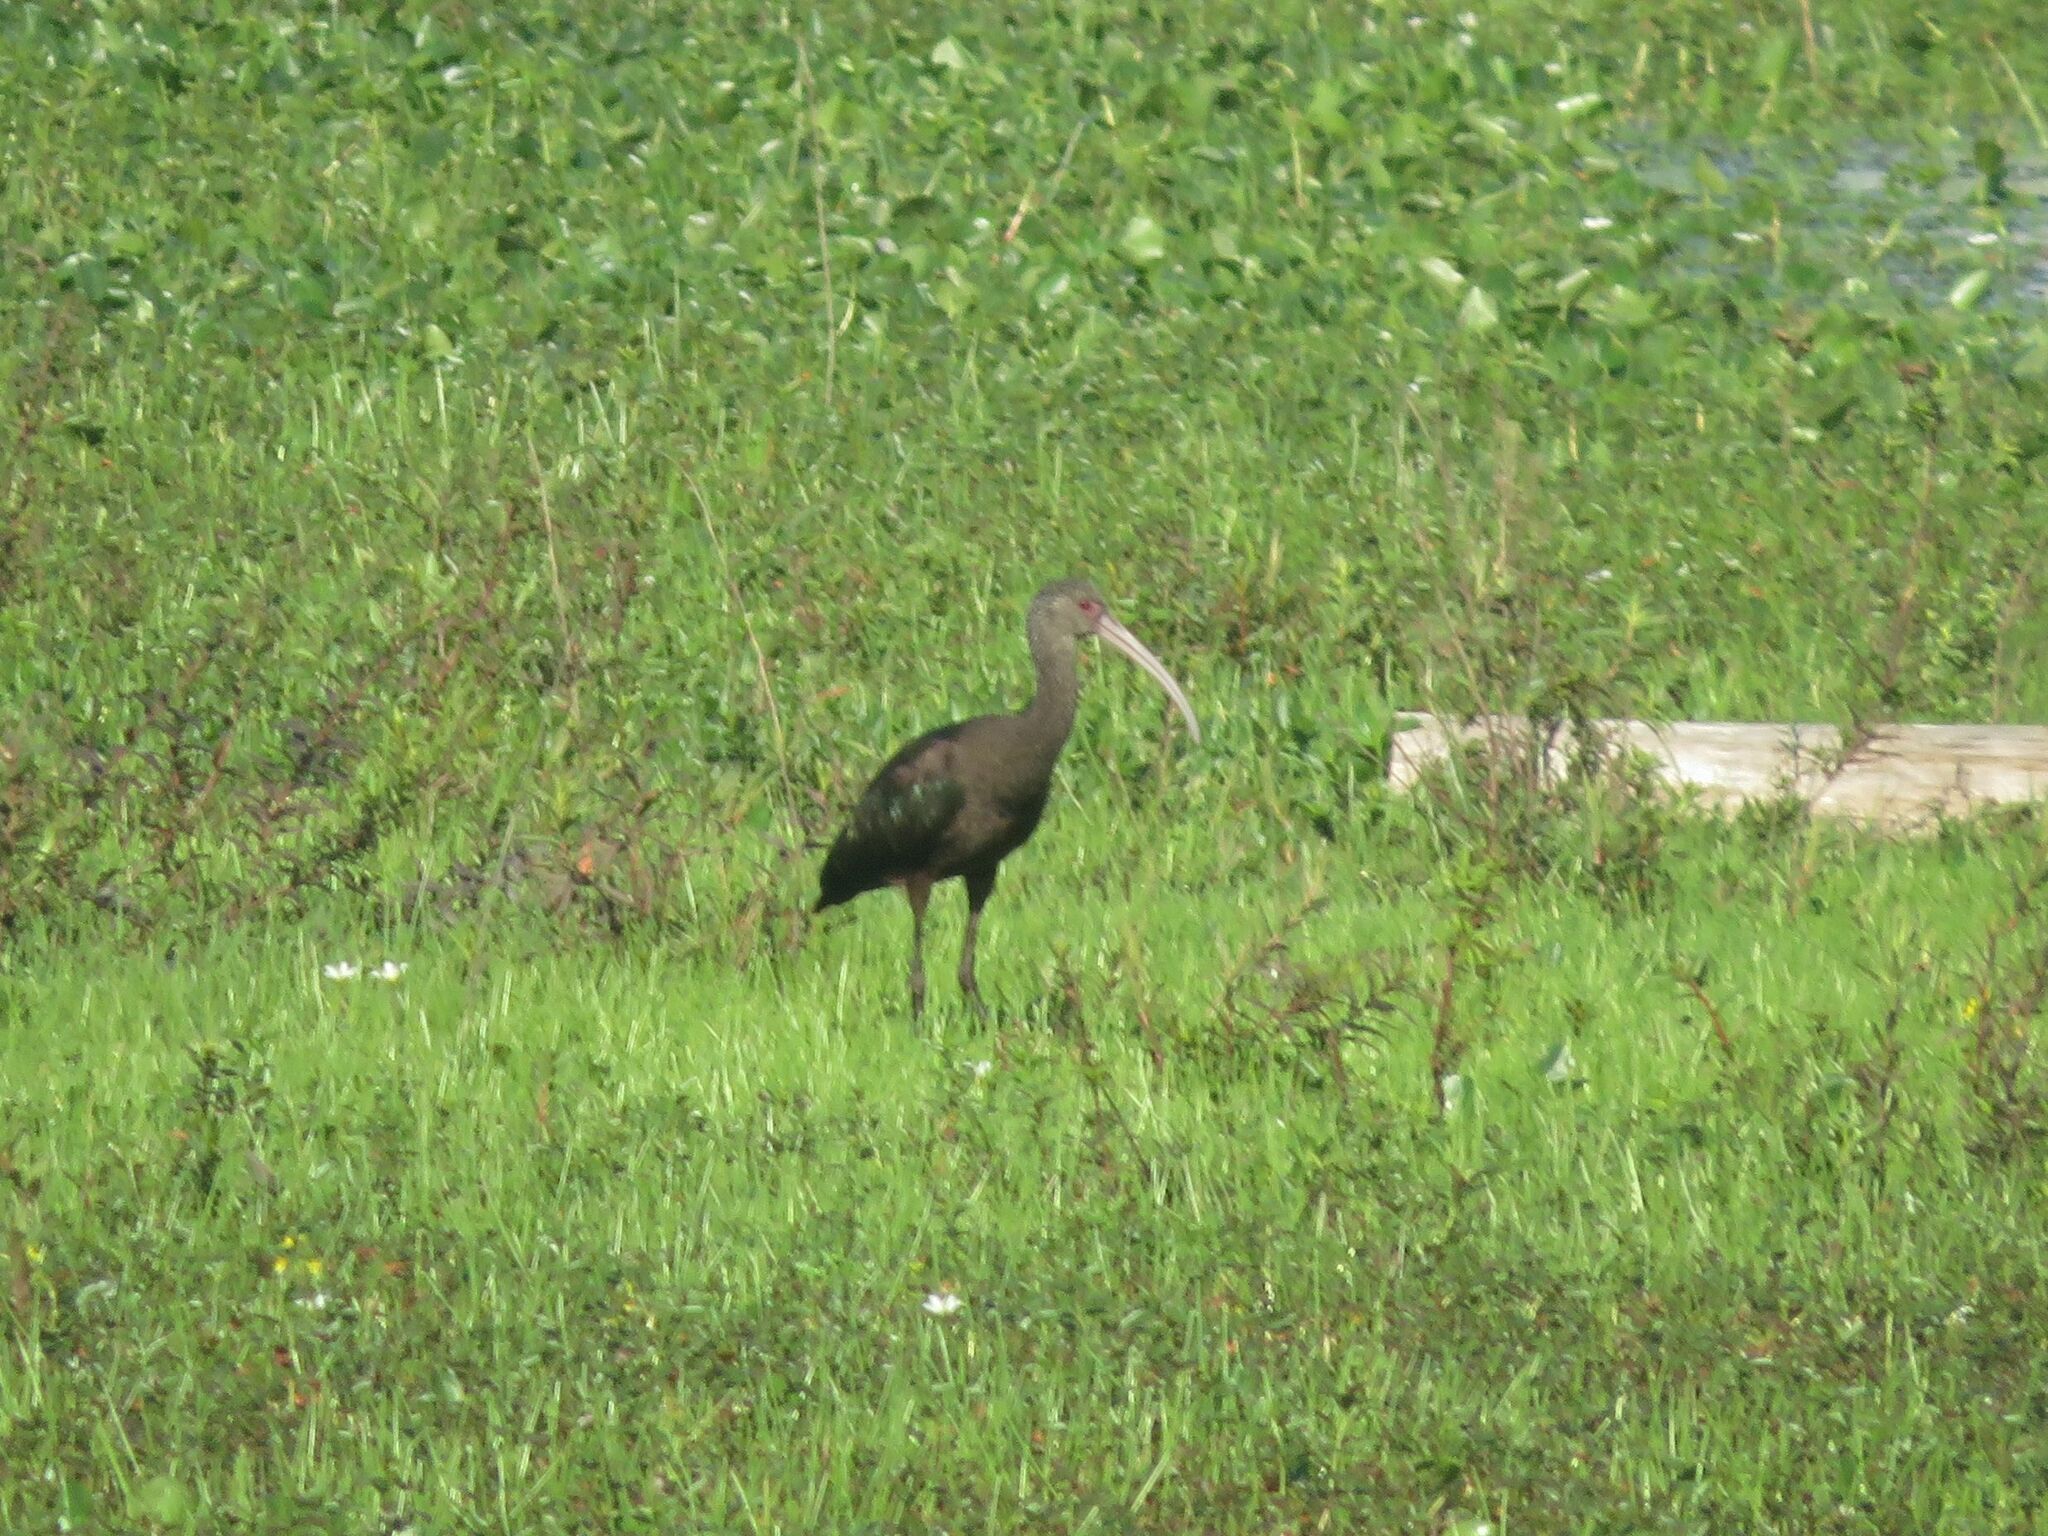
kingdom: Animalia
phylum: Chordata
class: Aves
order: Pelecaniformes
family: Threskiornithidae
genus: Plegadis
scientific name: Plegadis chihi
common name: White-faced ibis
